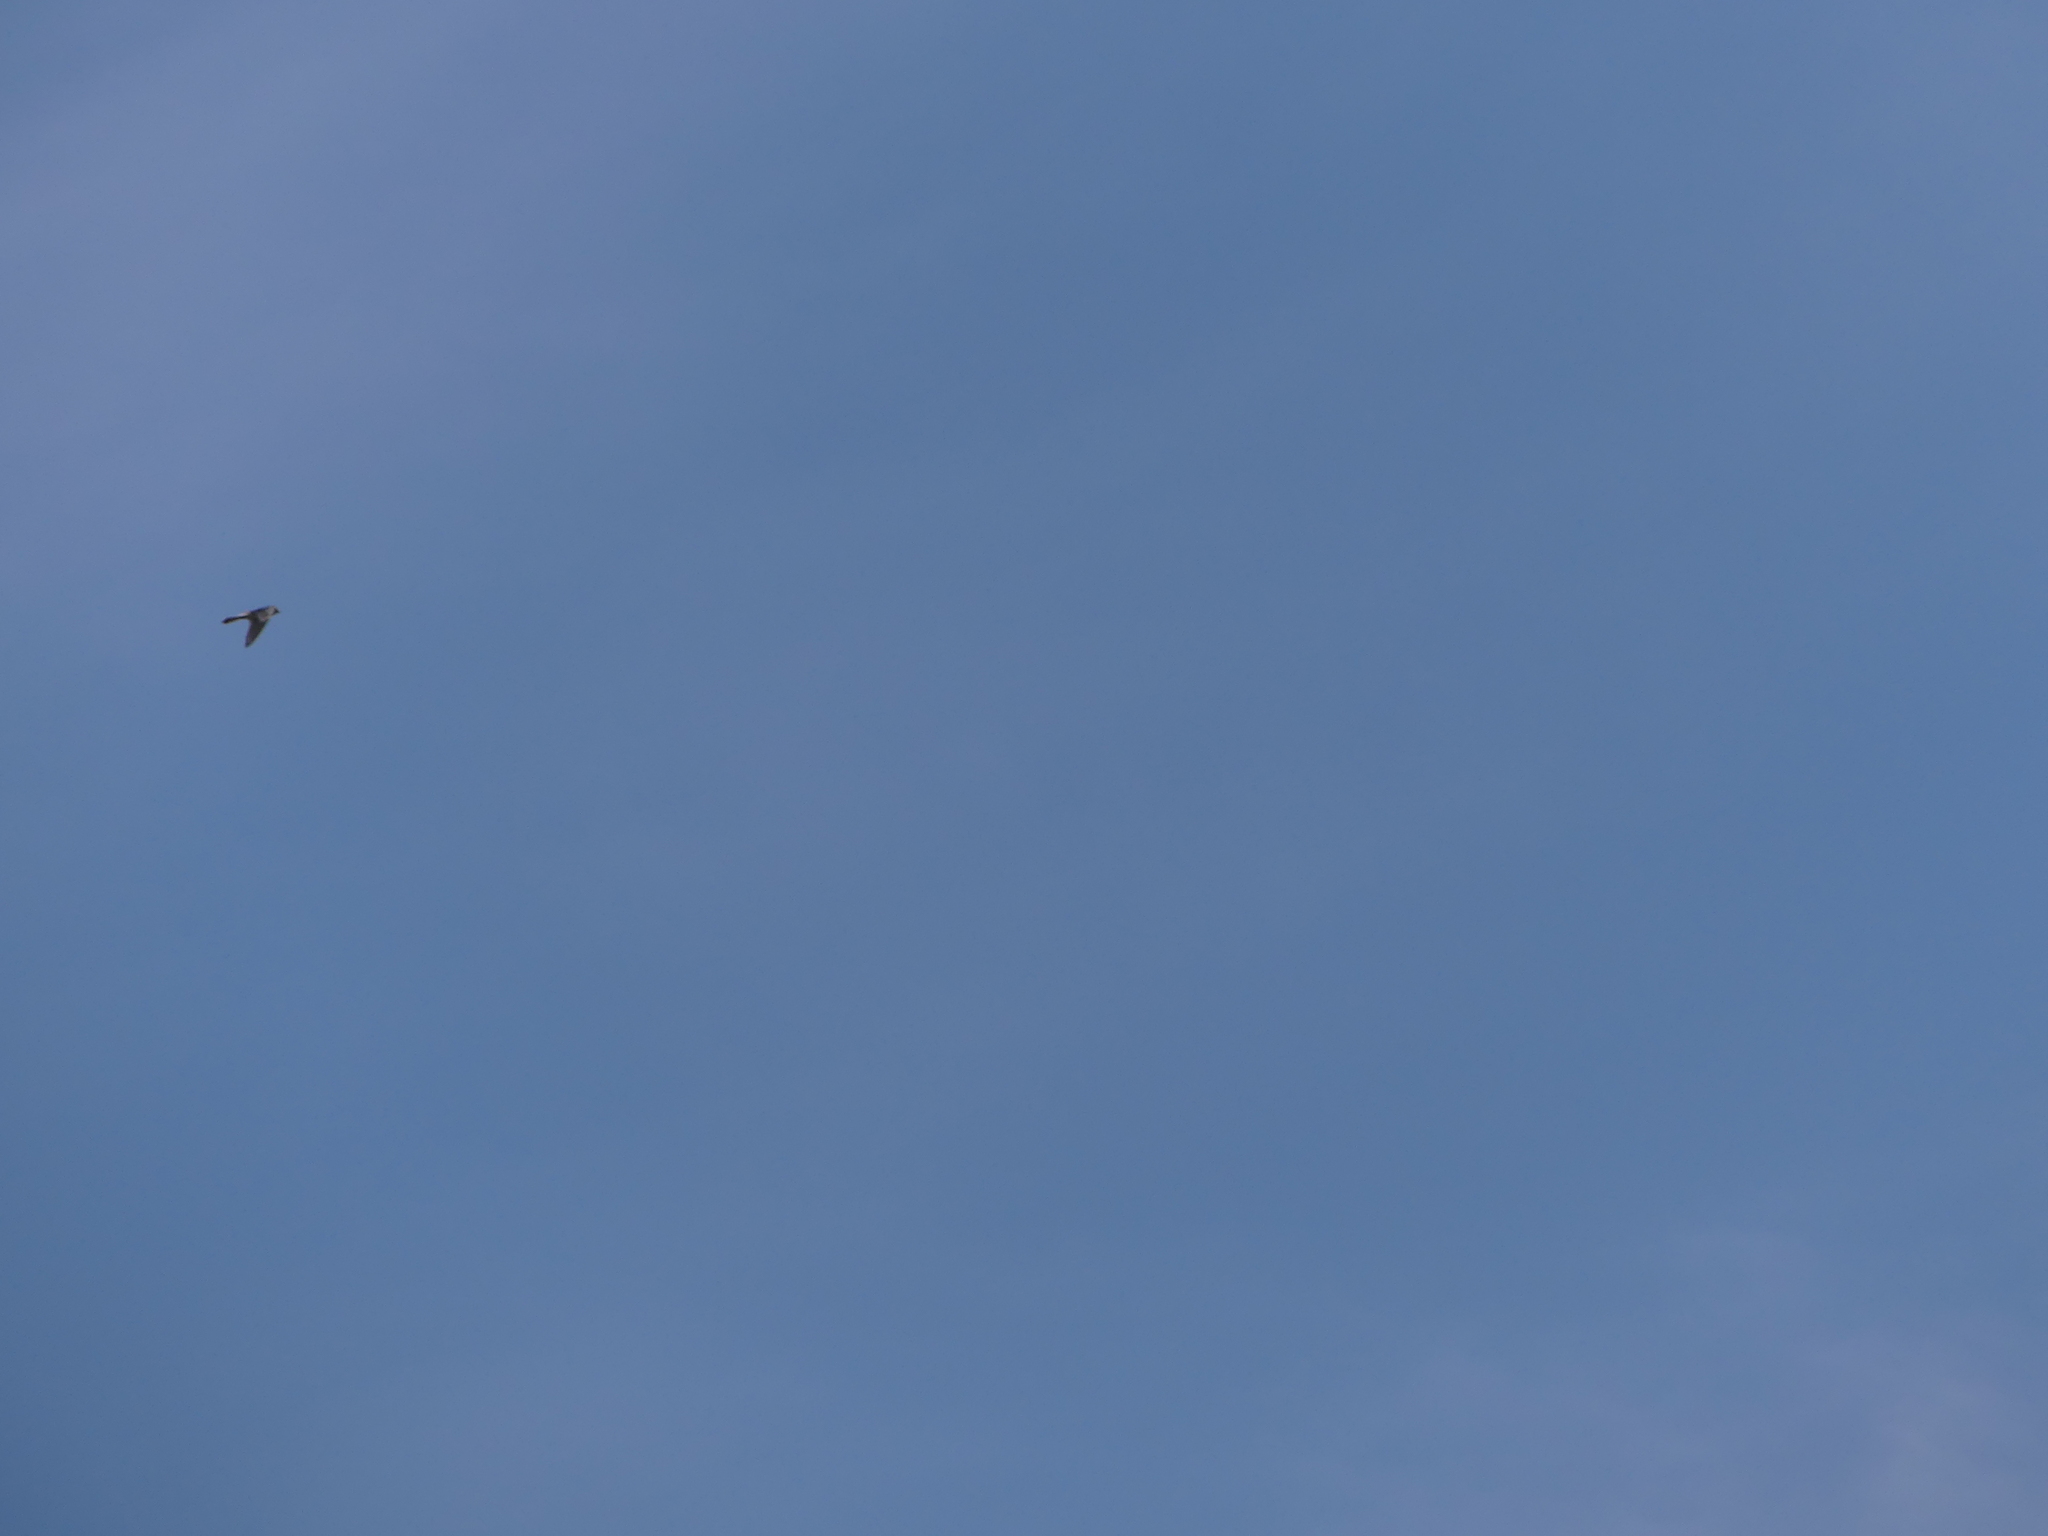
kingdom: Animalia
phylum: Chordata
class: Aves
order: Falconiformes
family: Falconidae
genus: Falco
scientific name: Falco sparverius
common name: American kestrel
